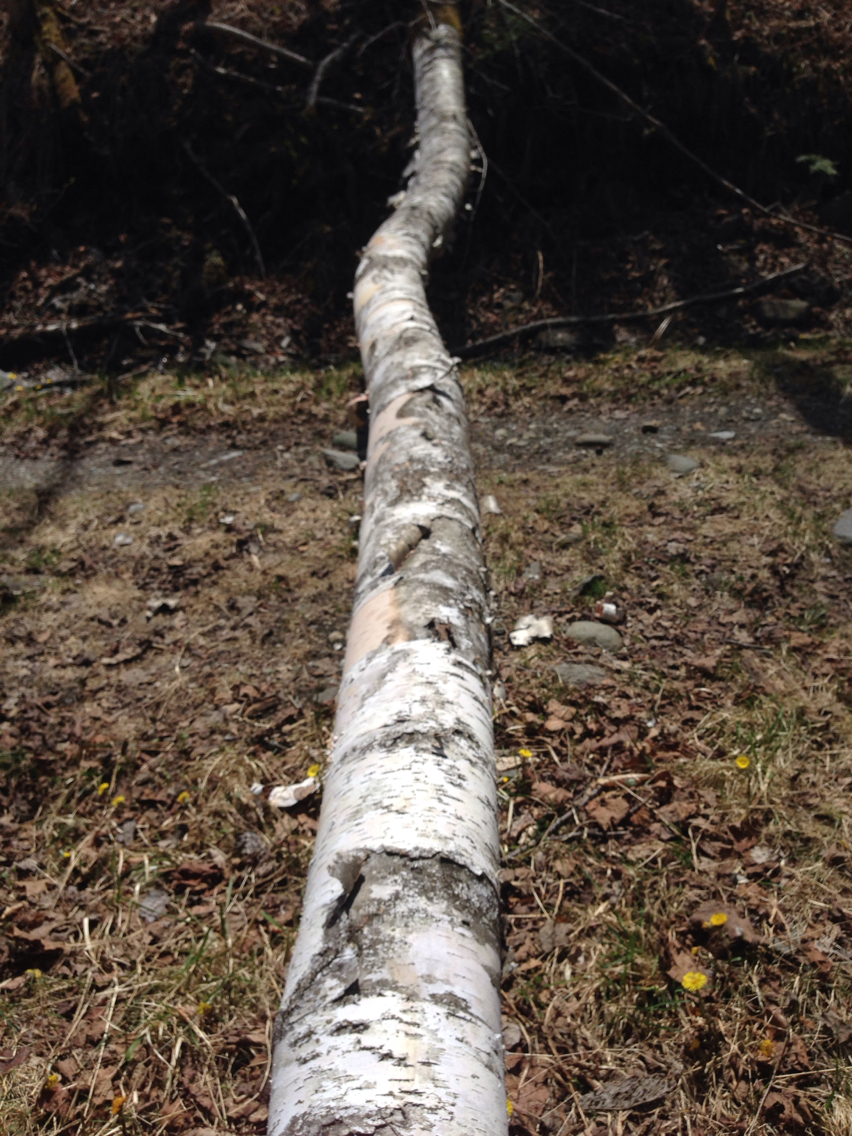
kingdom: Plantae
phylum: Tracheophyta
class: Magnoliopsida
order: Fagales
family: Betulaceae
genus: Betula
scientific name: Betula papyrifera
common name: Paper birch
